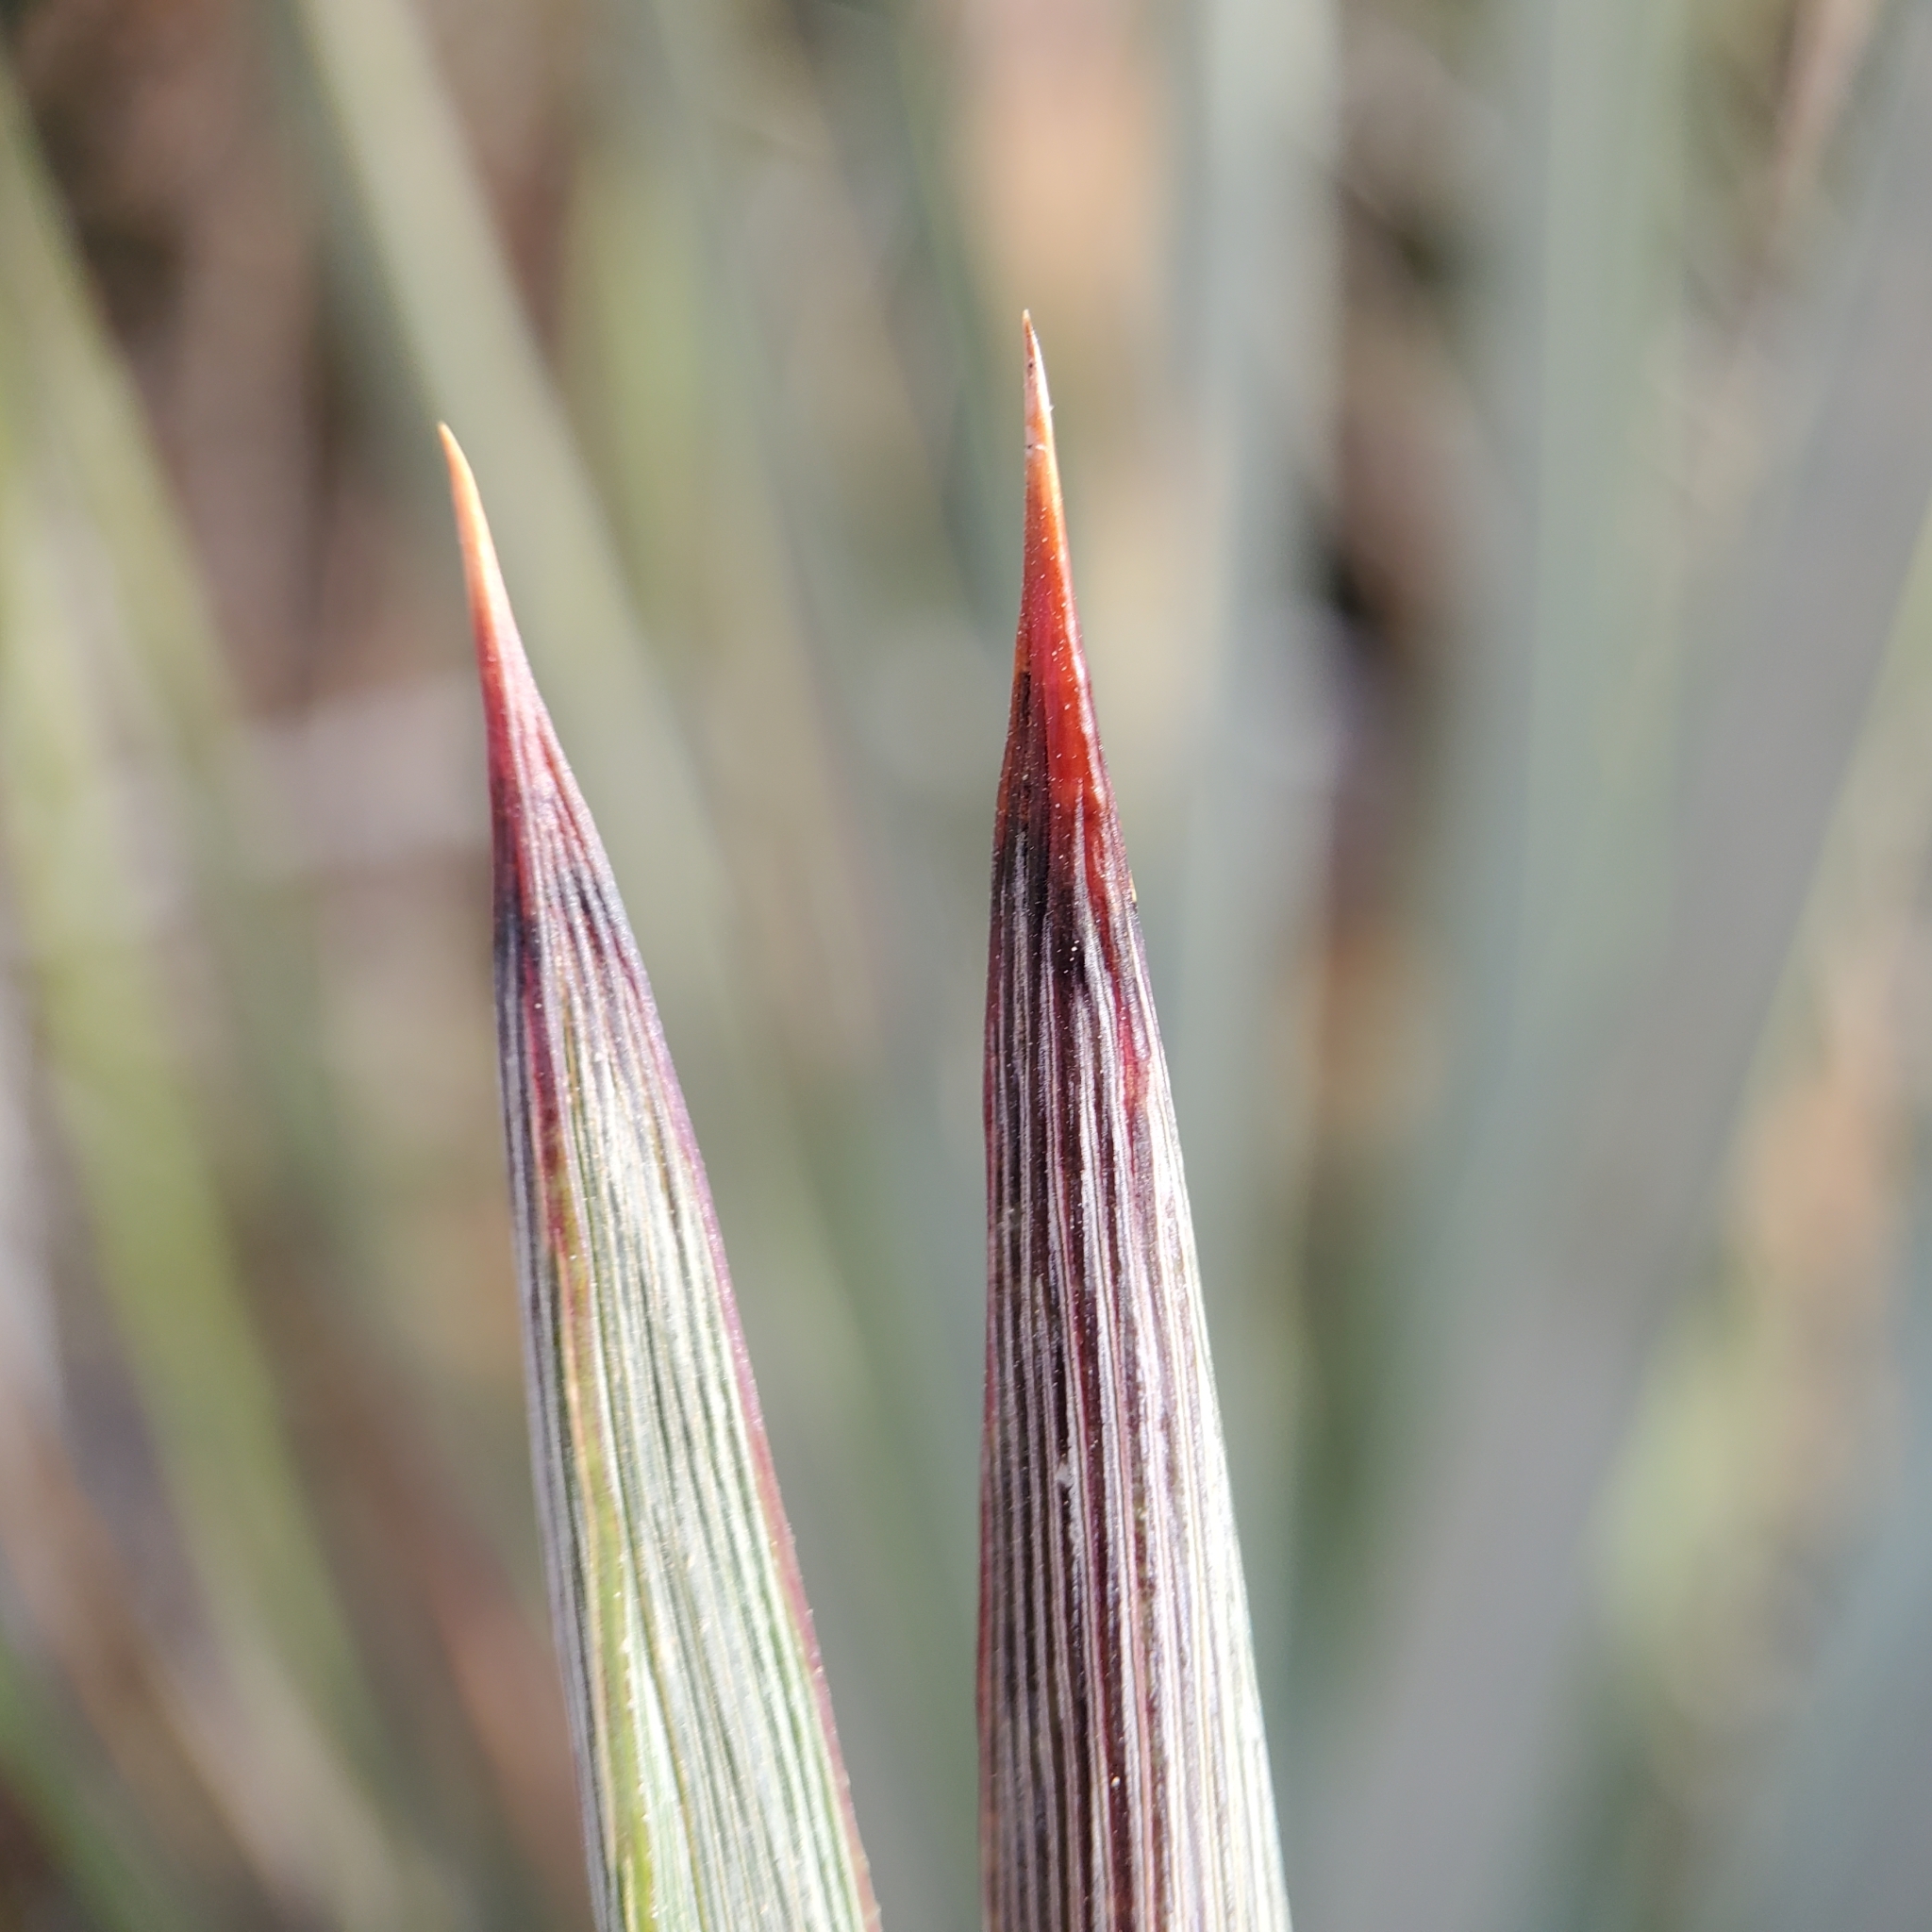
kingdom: Plantae
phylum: Tracheophyta
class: Liliopsida
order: Asparagales
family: Asparagaceae
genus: Hesperoyucca
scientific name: Hesperoyucca whipplei
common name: Our lord's-candle
